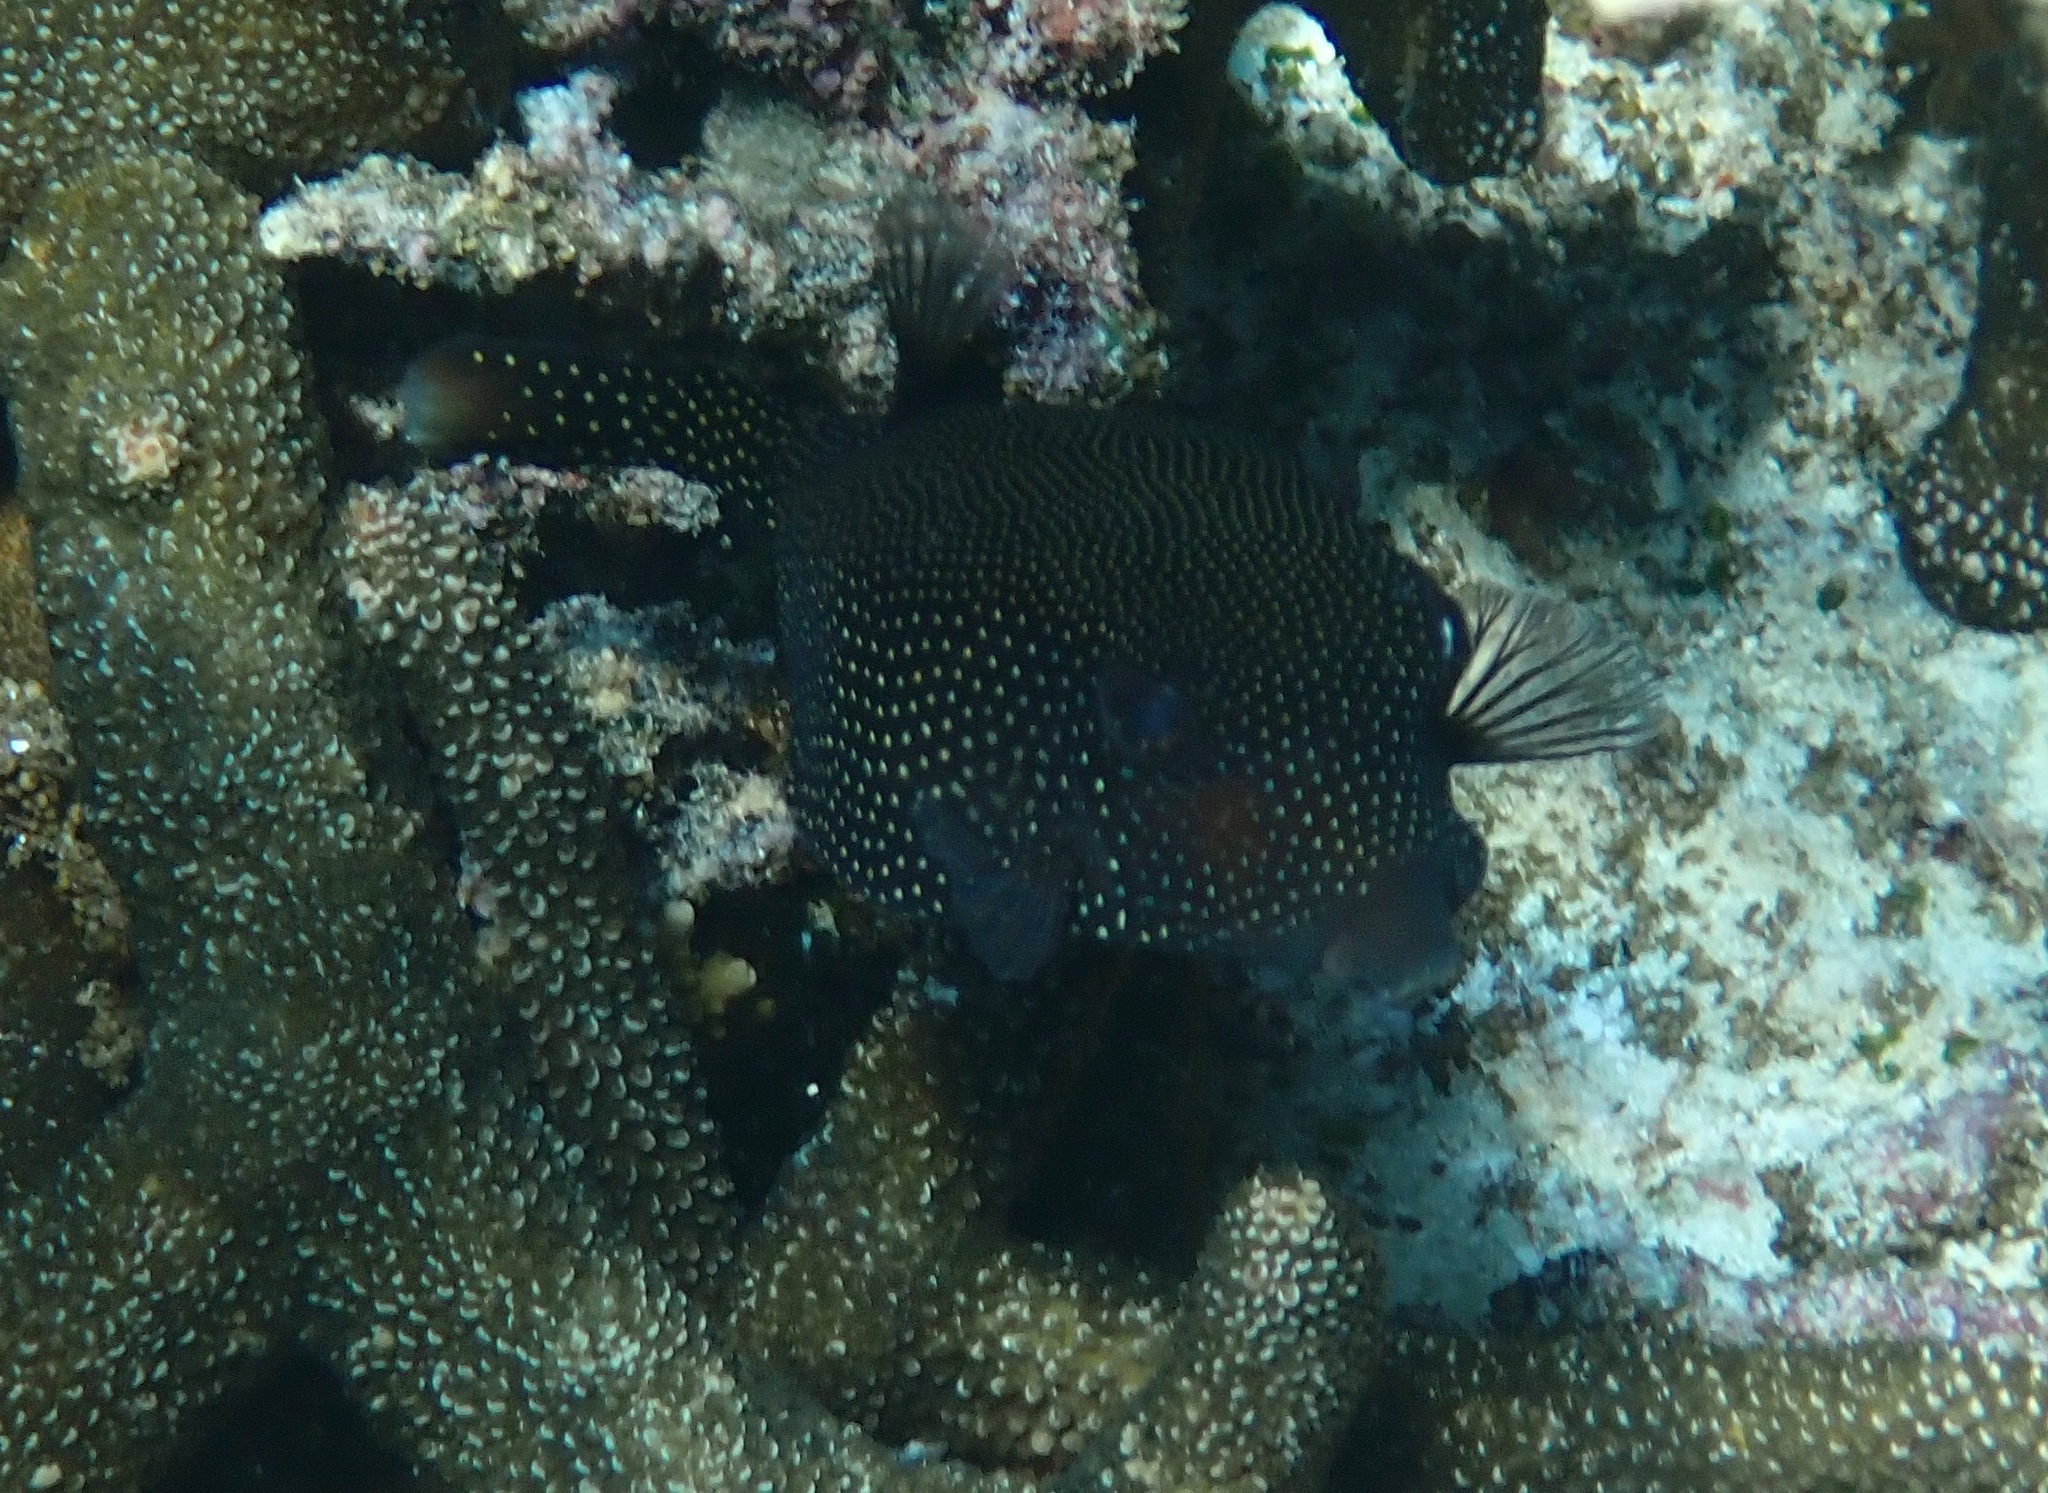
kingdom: Animalia
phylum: Chordata
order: Tetraodontiformes
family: Ostraciidae
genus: Ostracion
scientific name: Ostracion meleagris
